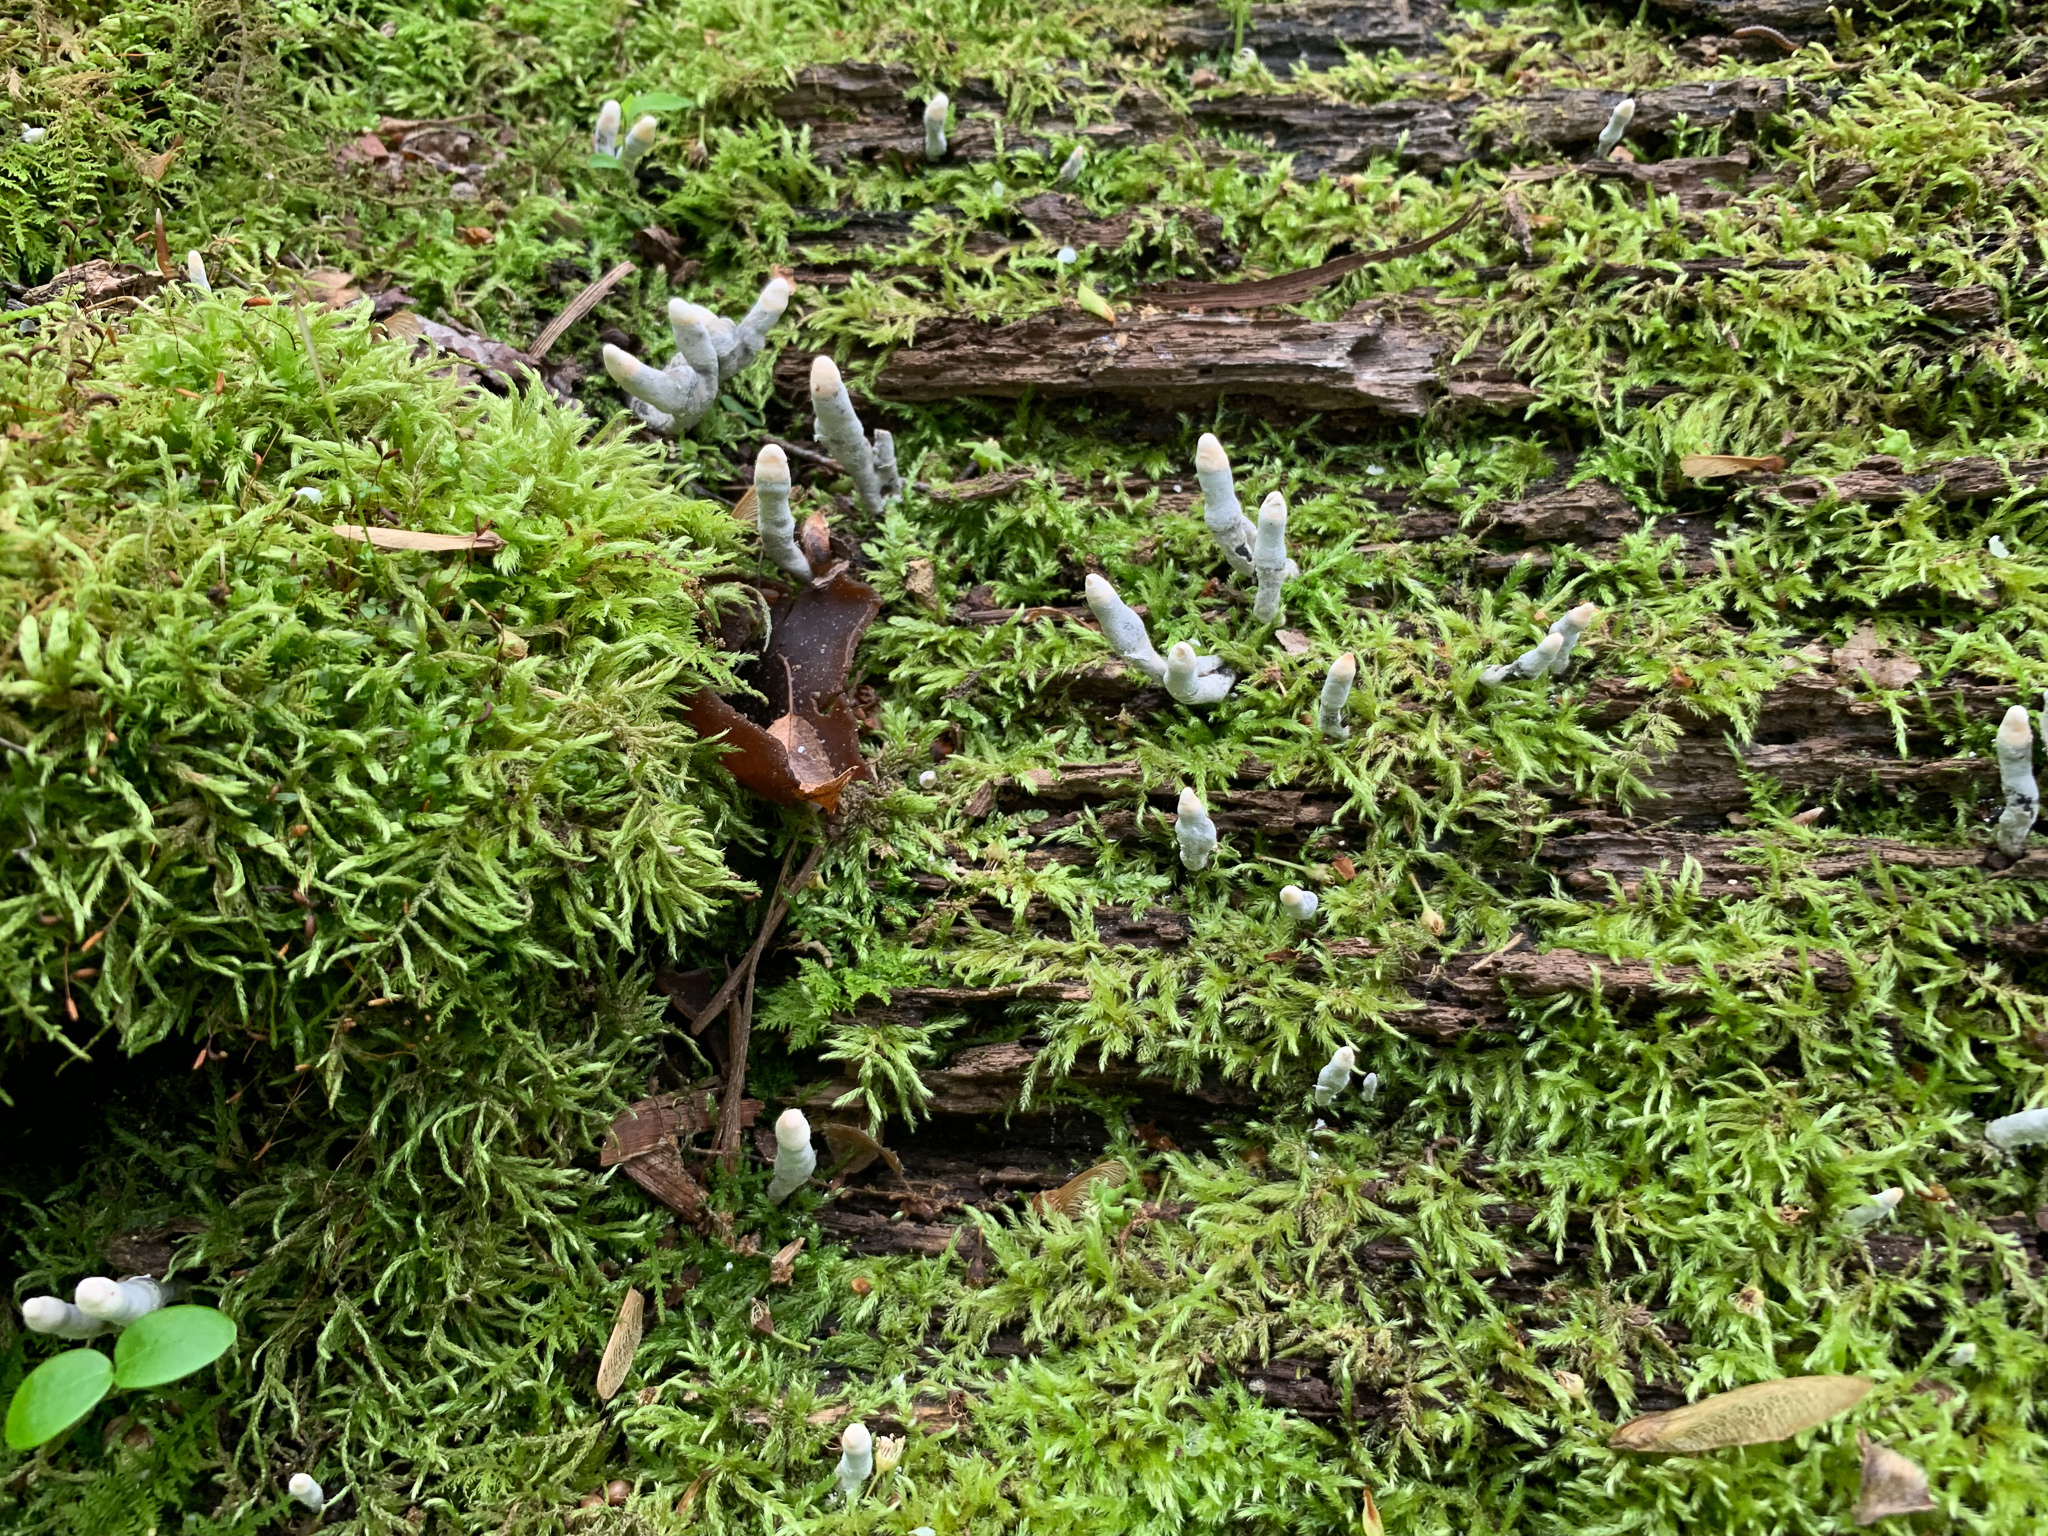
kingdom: Fungi
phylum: Ascomycota
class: Sordariomycetes
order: Xylariales
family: Xylariaceae
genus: Xylaria
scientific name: Xylaria longipes
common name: Dead moll's fingers
